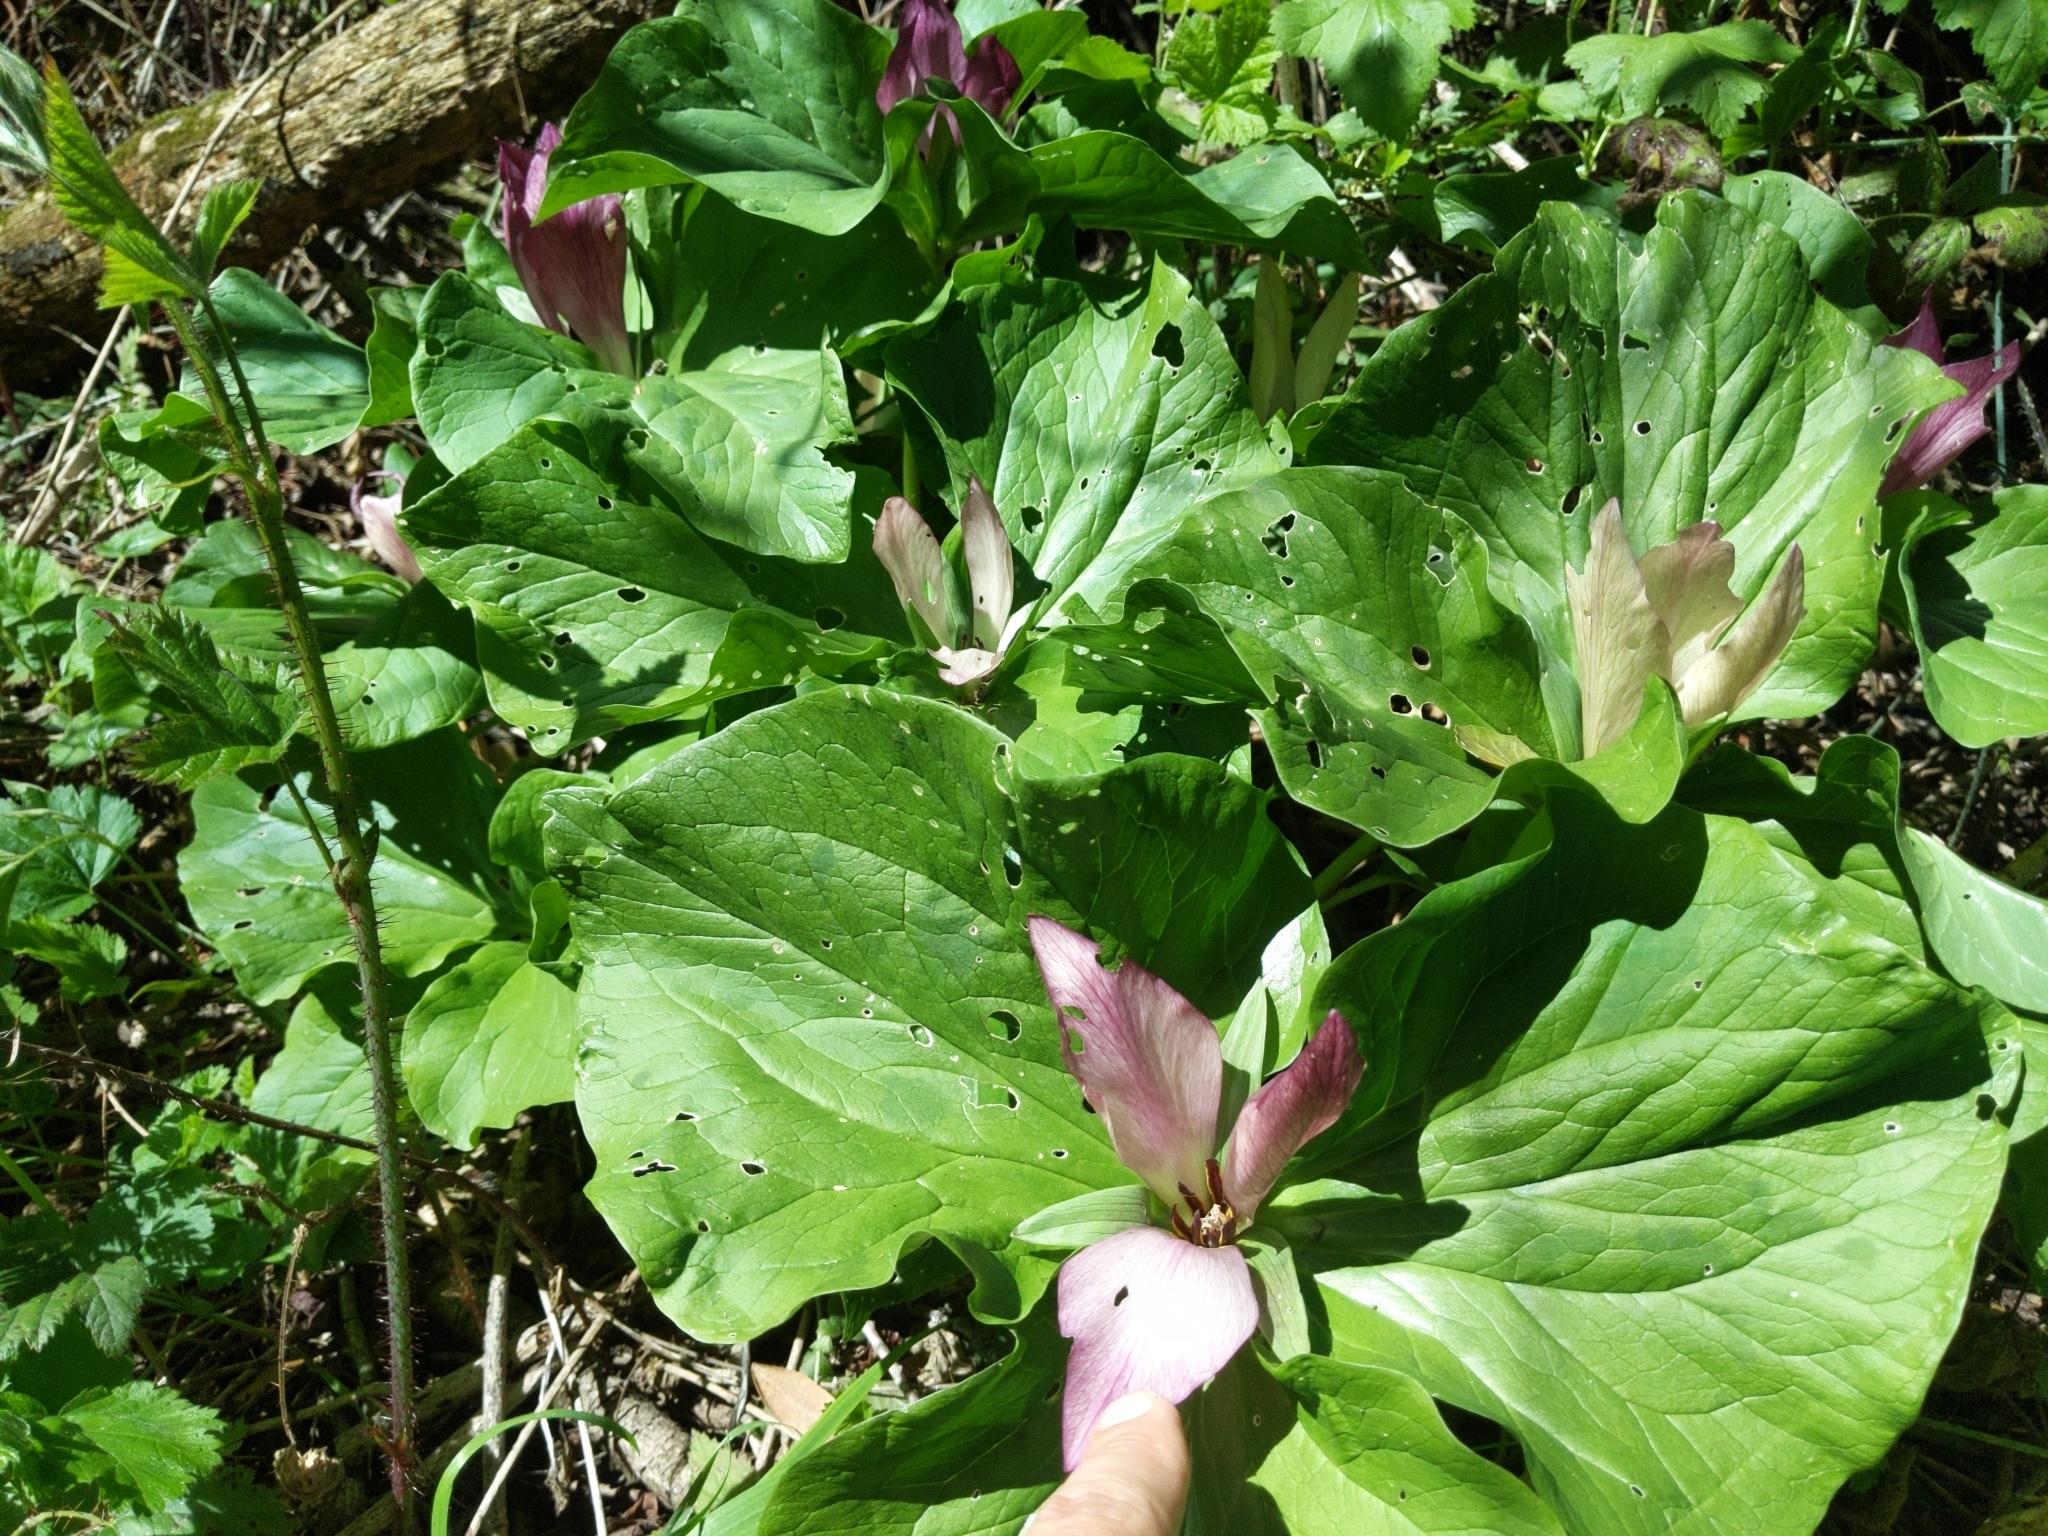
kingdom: Plantae
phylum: Tracheophyta
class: Liliopsida
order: Liliales
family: Melanthiaceae
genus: Trillium
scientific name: Trillium chloropetalum
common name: Giant trillium
